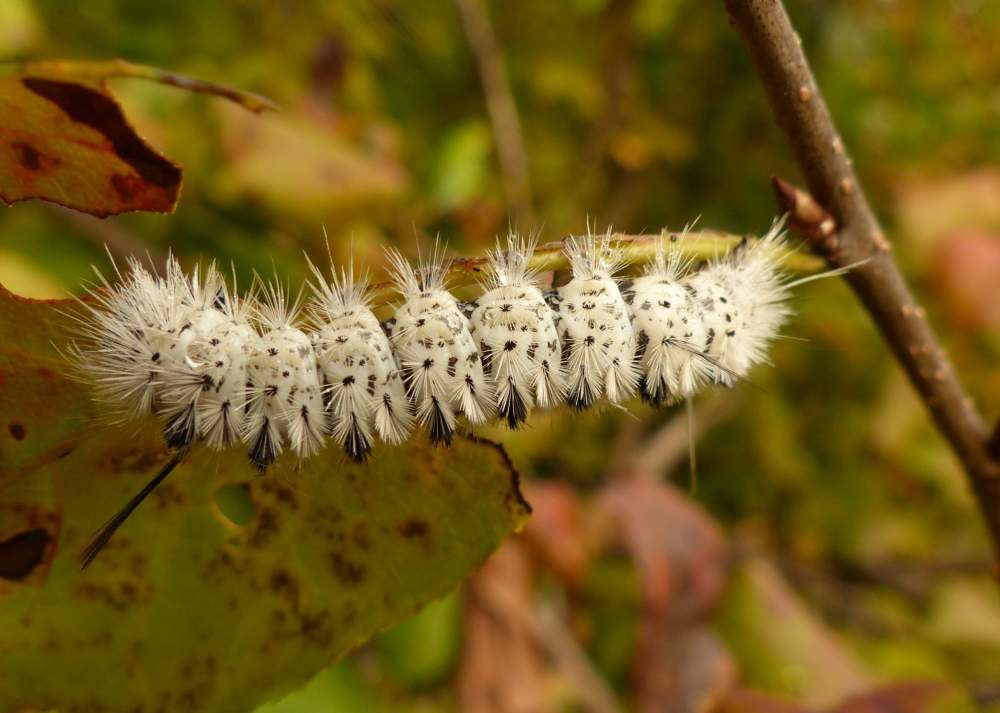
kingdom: Animalia
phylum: Arthropoda
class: Insecta
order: Lepidoptera
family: Erebidae
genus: Lophocampa
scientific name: Lophocampa caryae
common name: Hickory tussock moth
